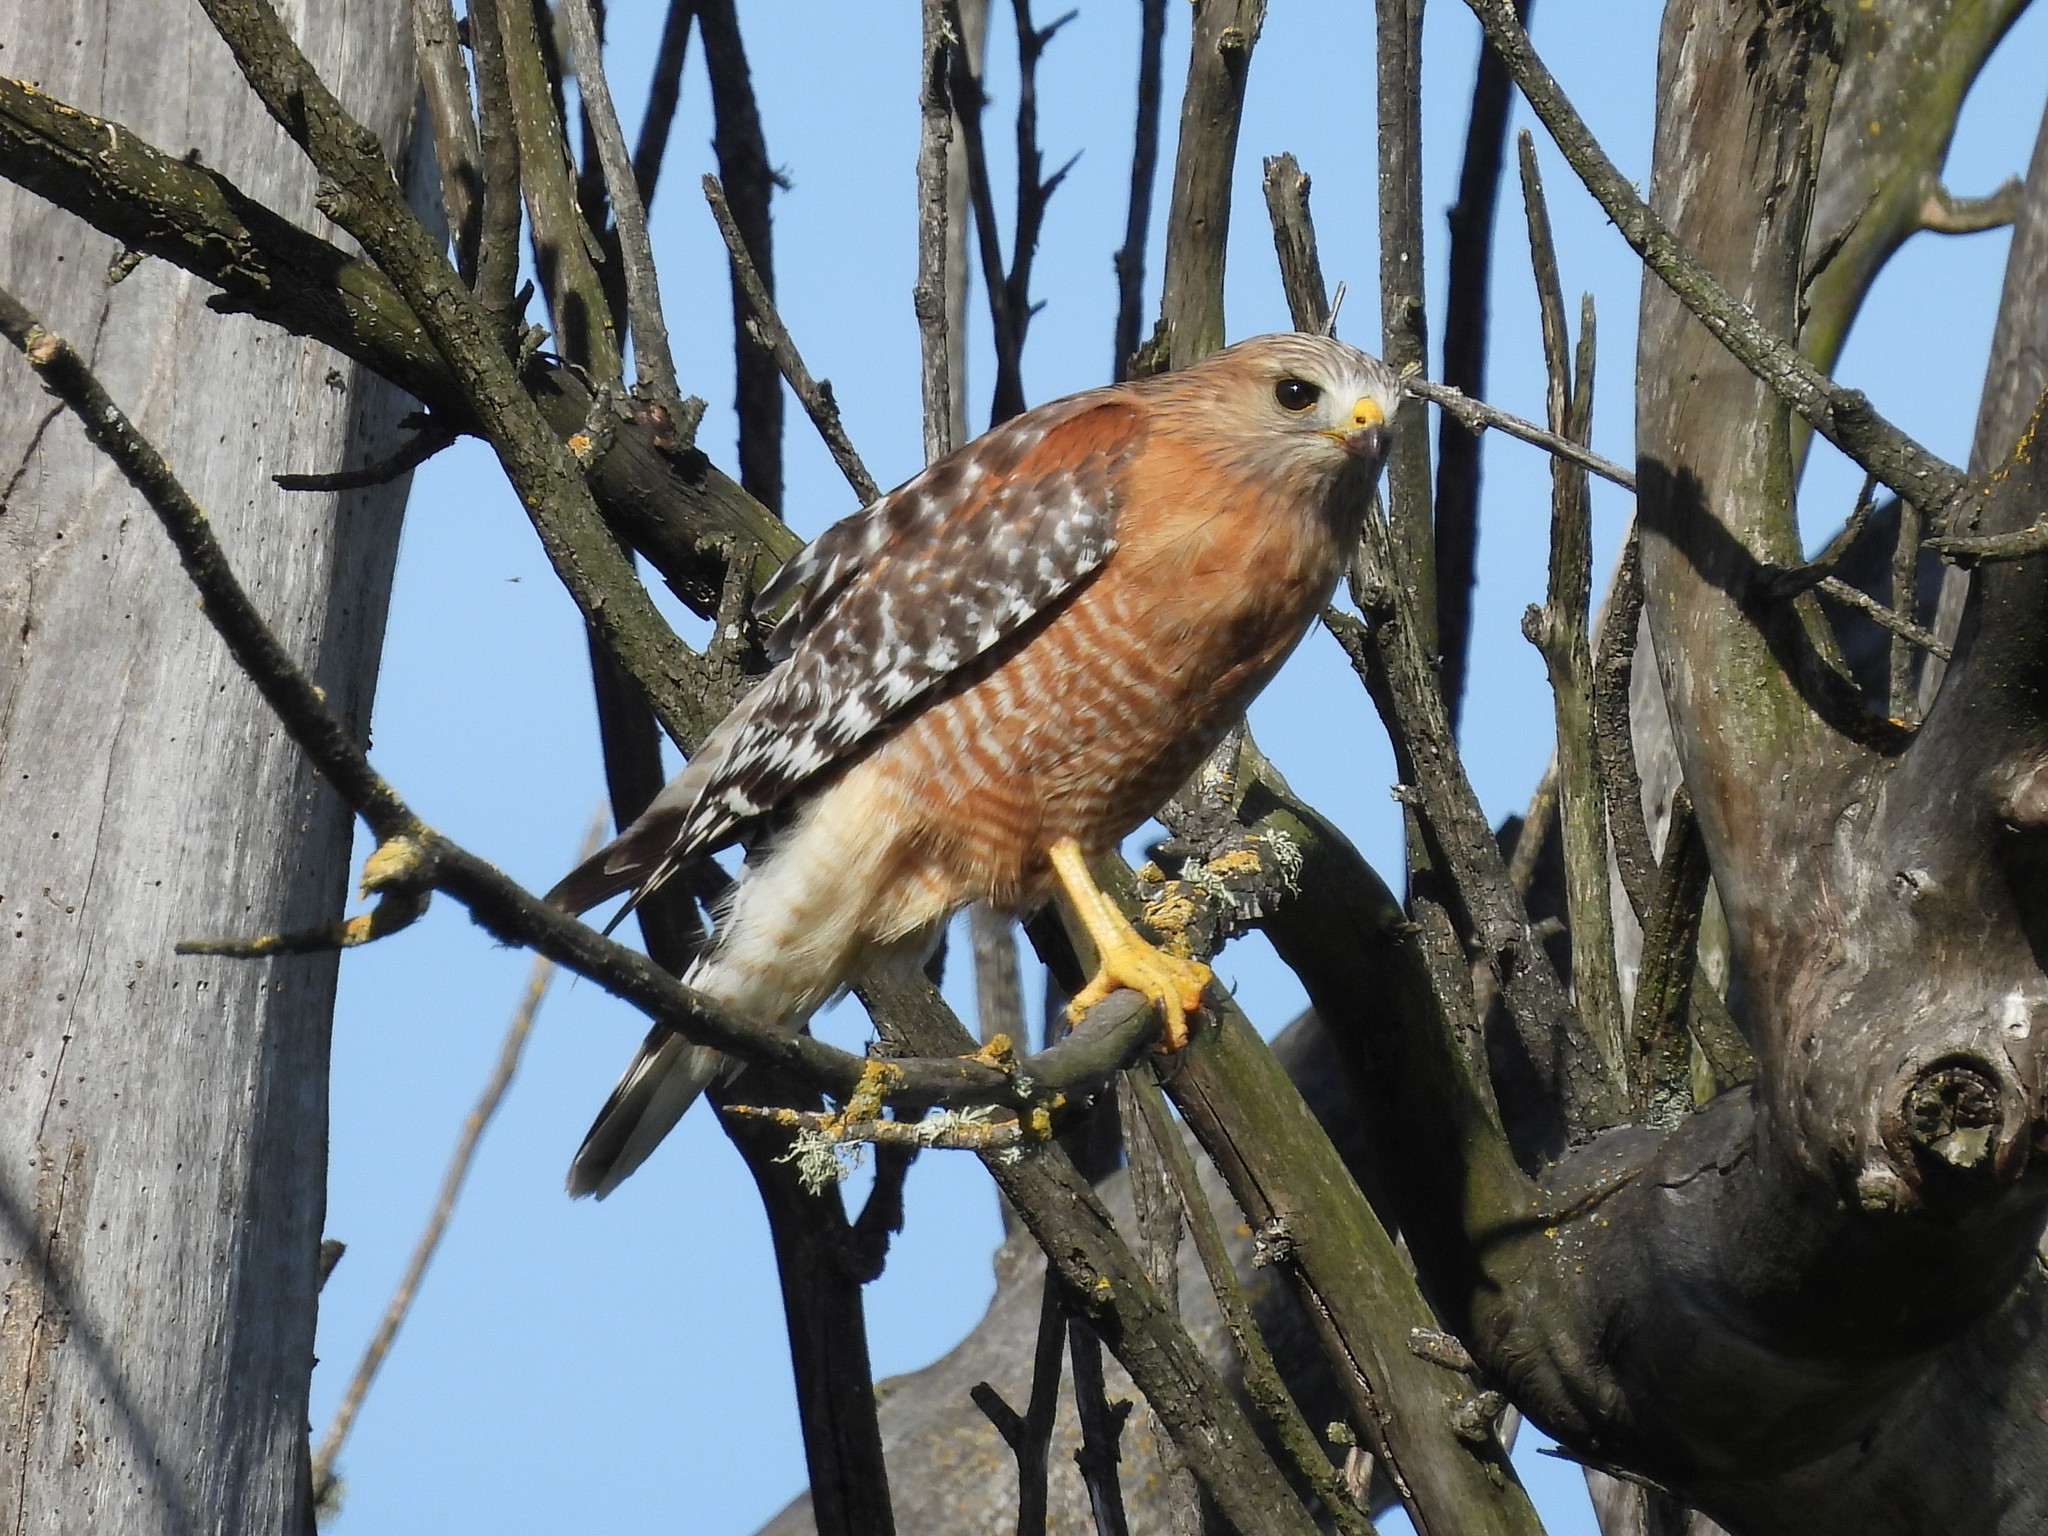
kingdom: Animalia
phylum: Chordata
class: Aves
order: Accipitriformes
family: Accipitridae
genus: Buteo
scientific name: Buteo lineatus
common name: Red-shouldered hawk
